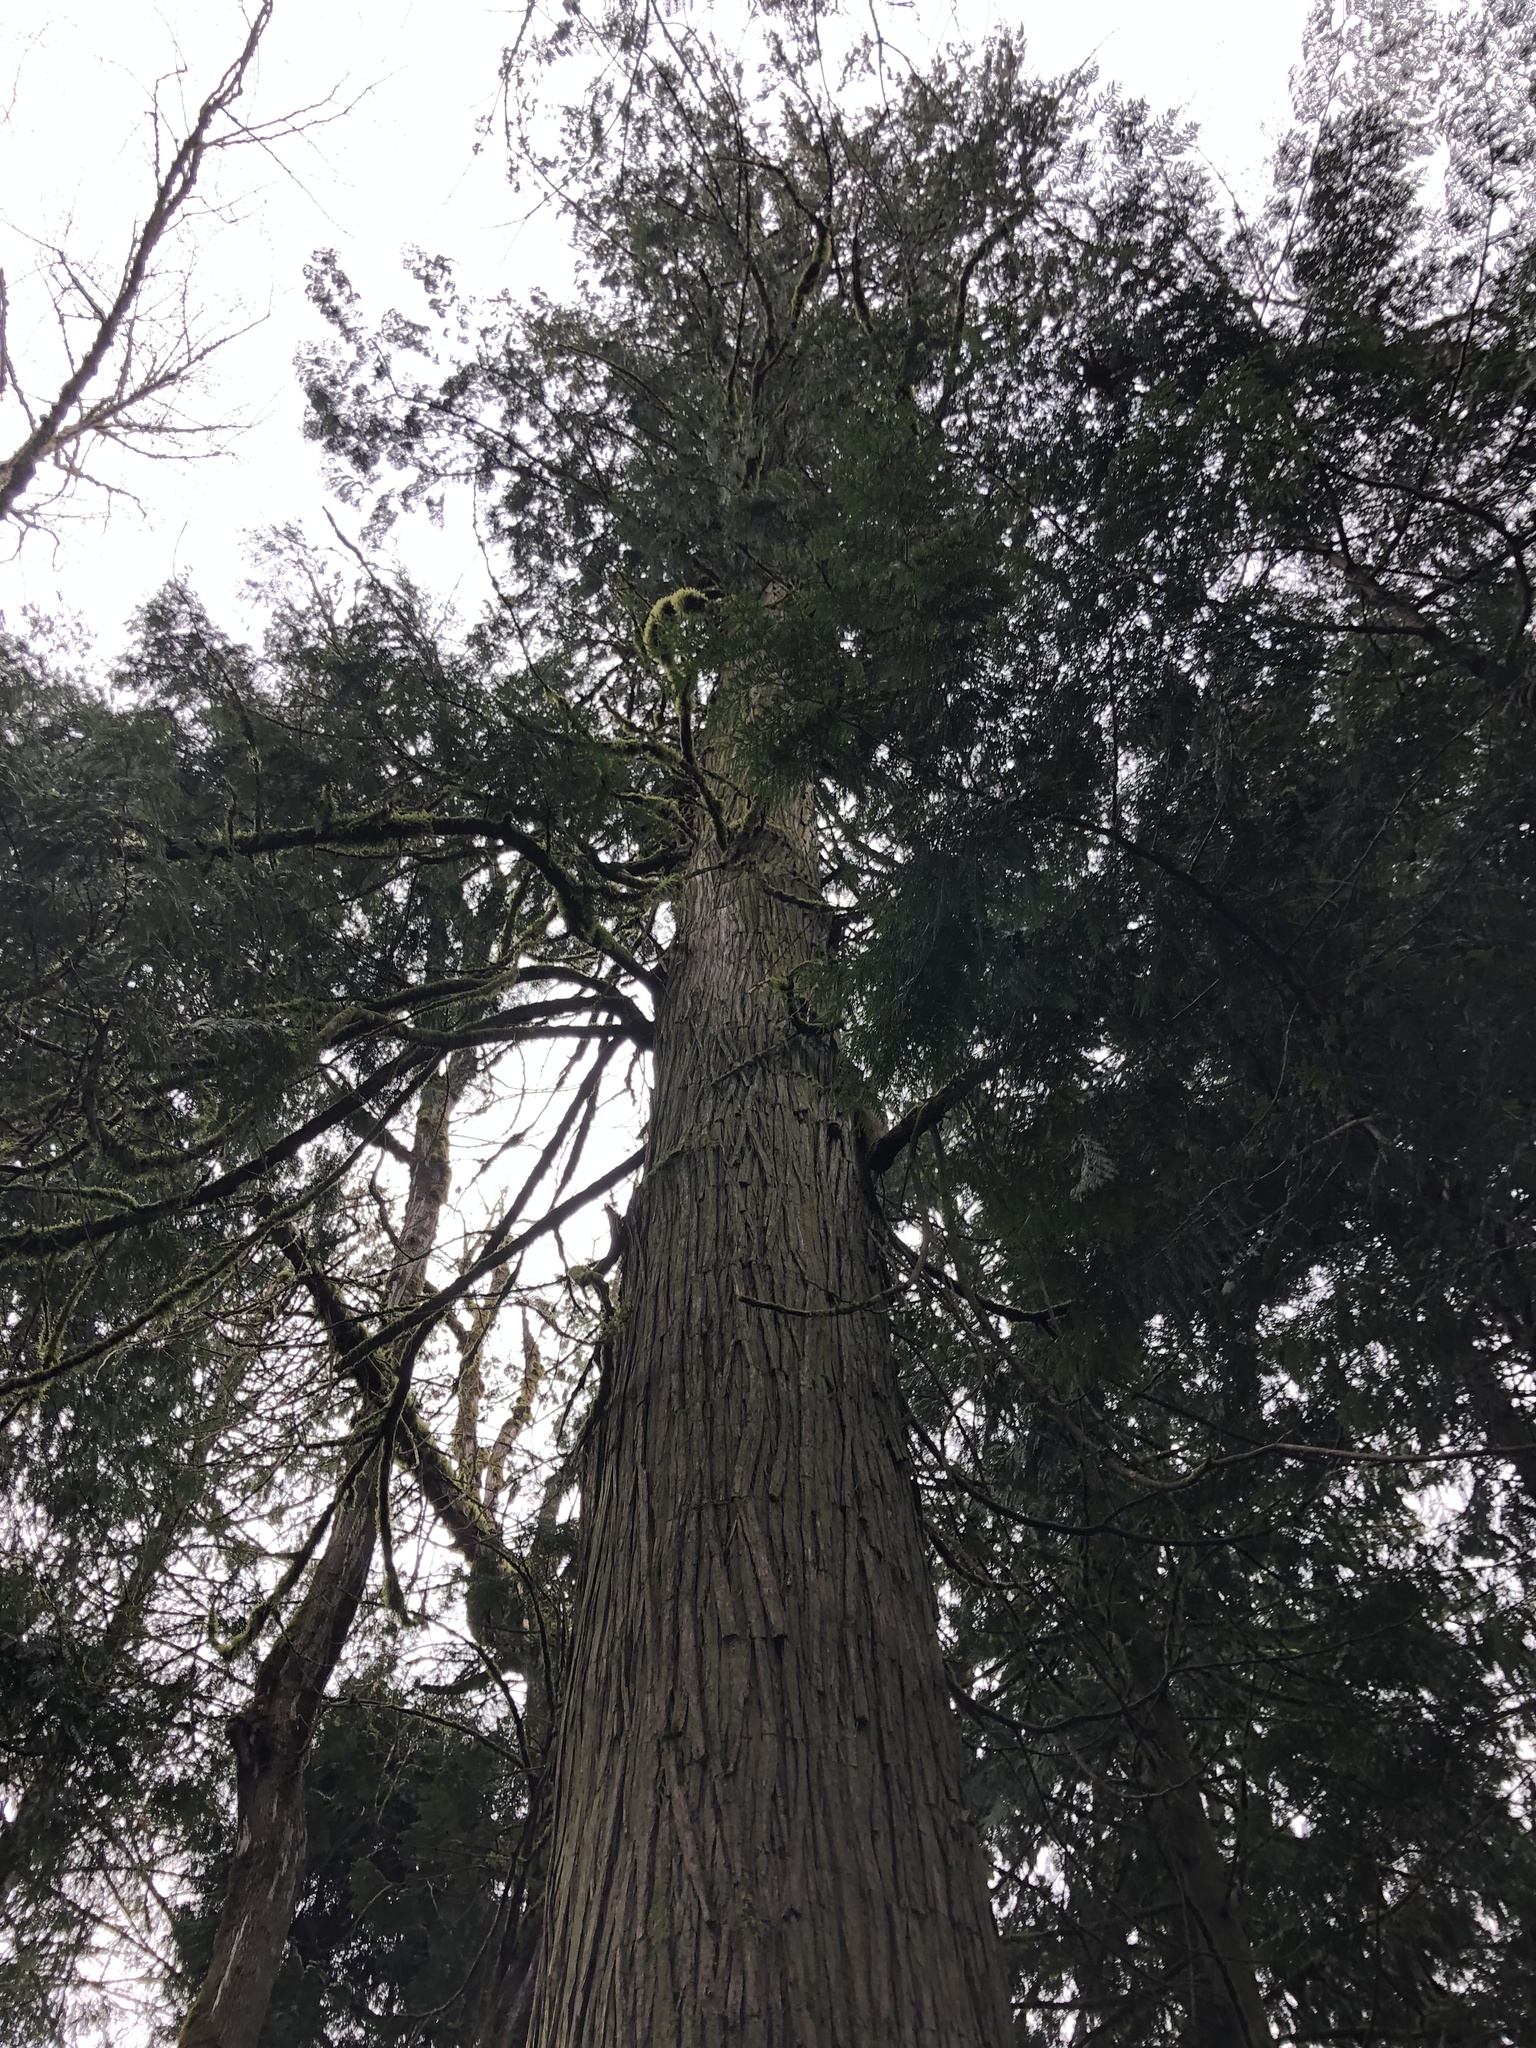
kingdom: Plantae
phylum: Tracheophyta
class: Pinopsida
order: Pinales
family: Cupressaceae
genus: Thuja
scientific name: Thuja plicata
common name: Western red-cedar
